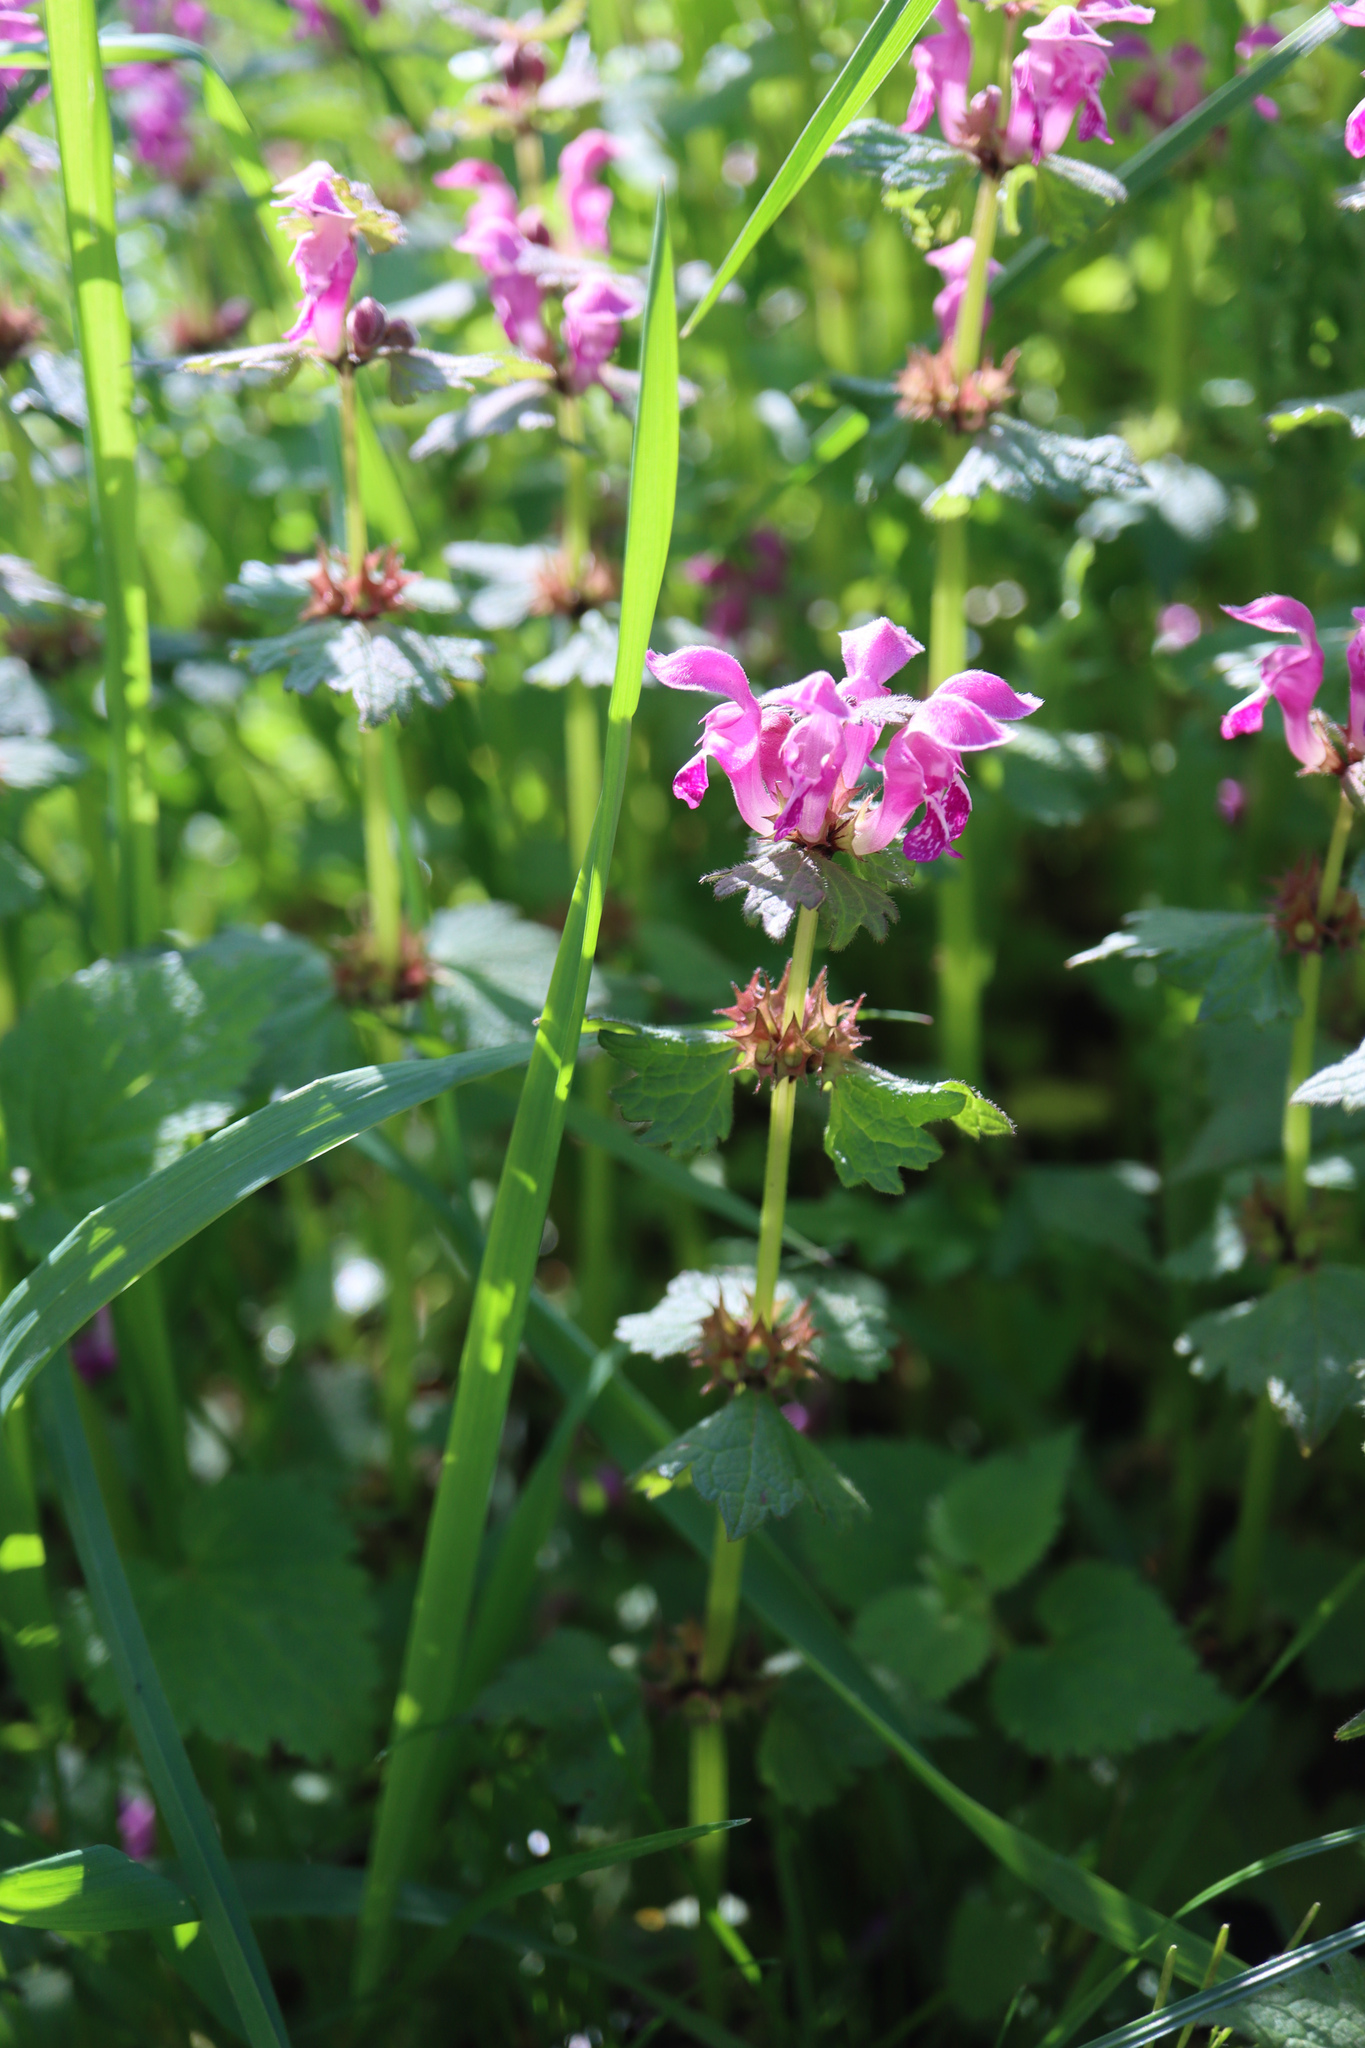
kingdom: Plantae
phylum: Tracheophyta
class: Magnoliopsida
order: Lamiales
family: Lamiaceae
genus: Lamium
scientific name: Lamium maculatum
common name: Spotted dead-nettle
